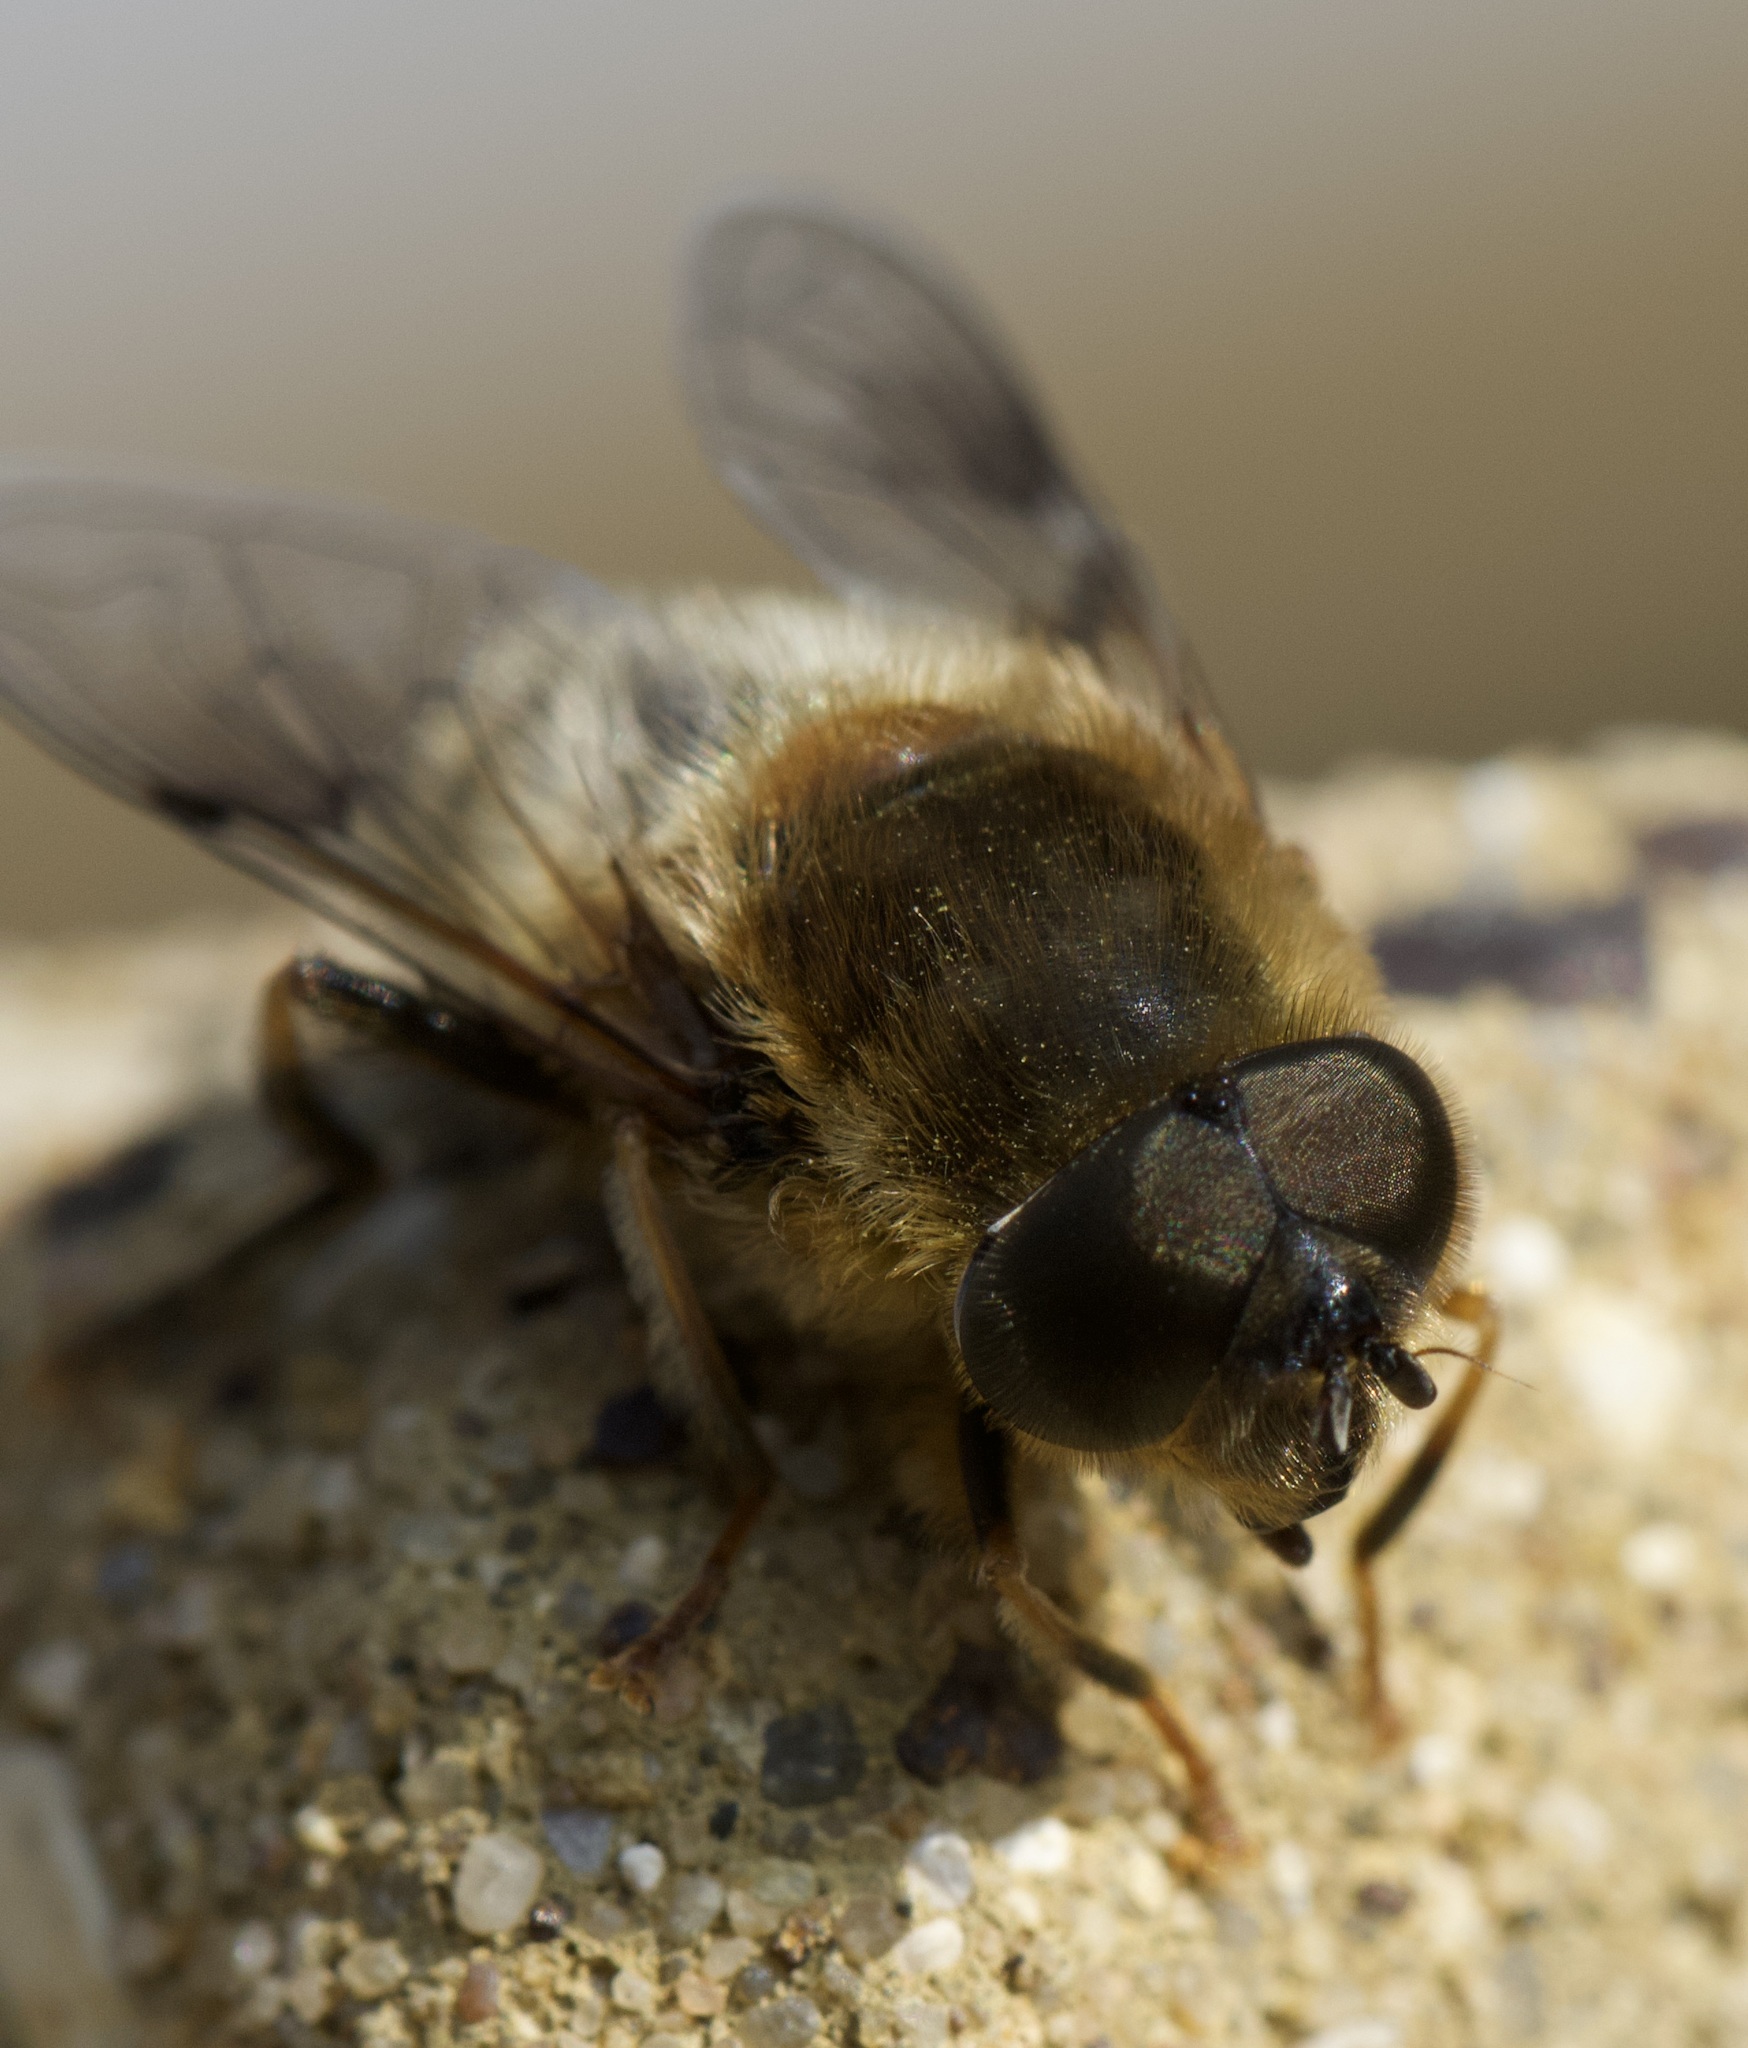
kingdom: Animalia
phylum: Arthropoda
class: Insecta
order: Diptera
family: Syrphidae
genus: Eristalis
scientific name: Eristalis pertinax
